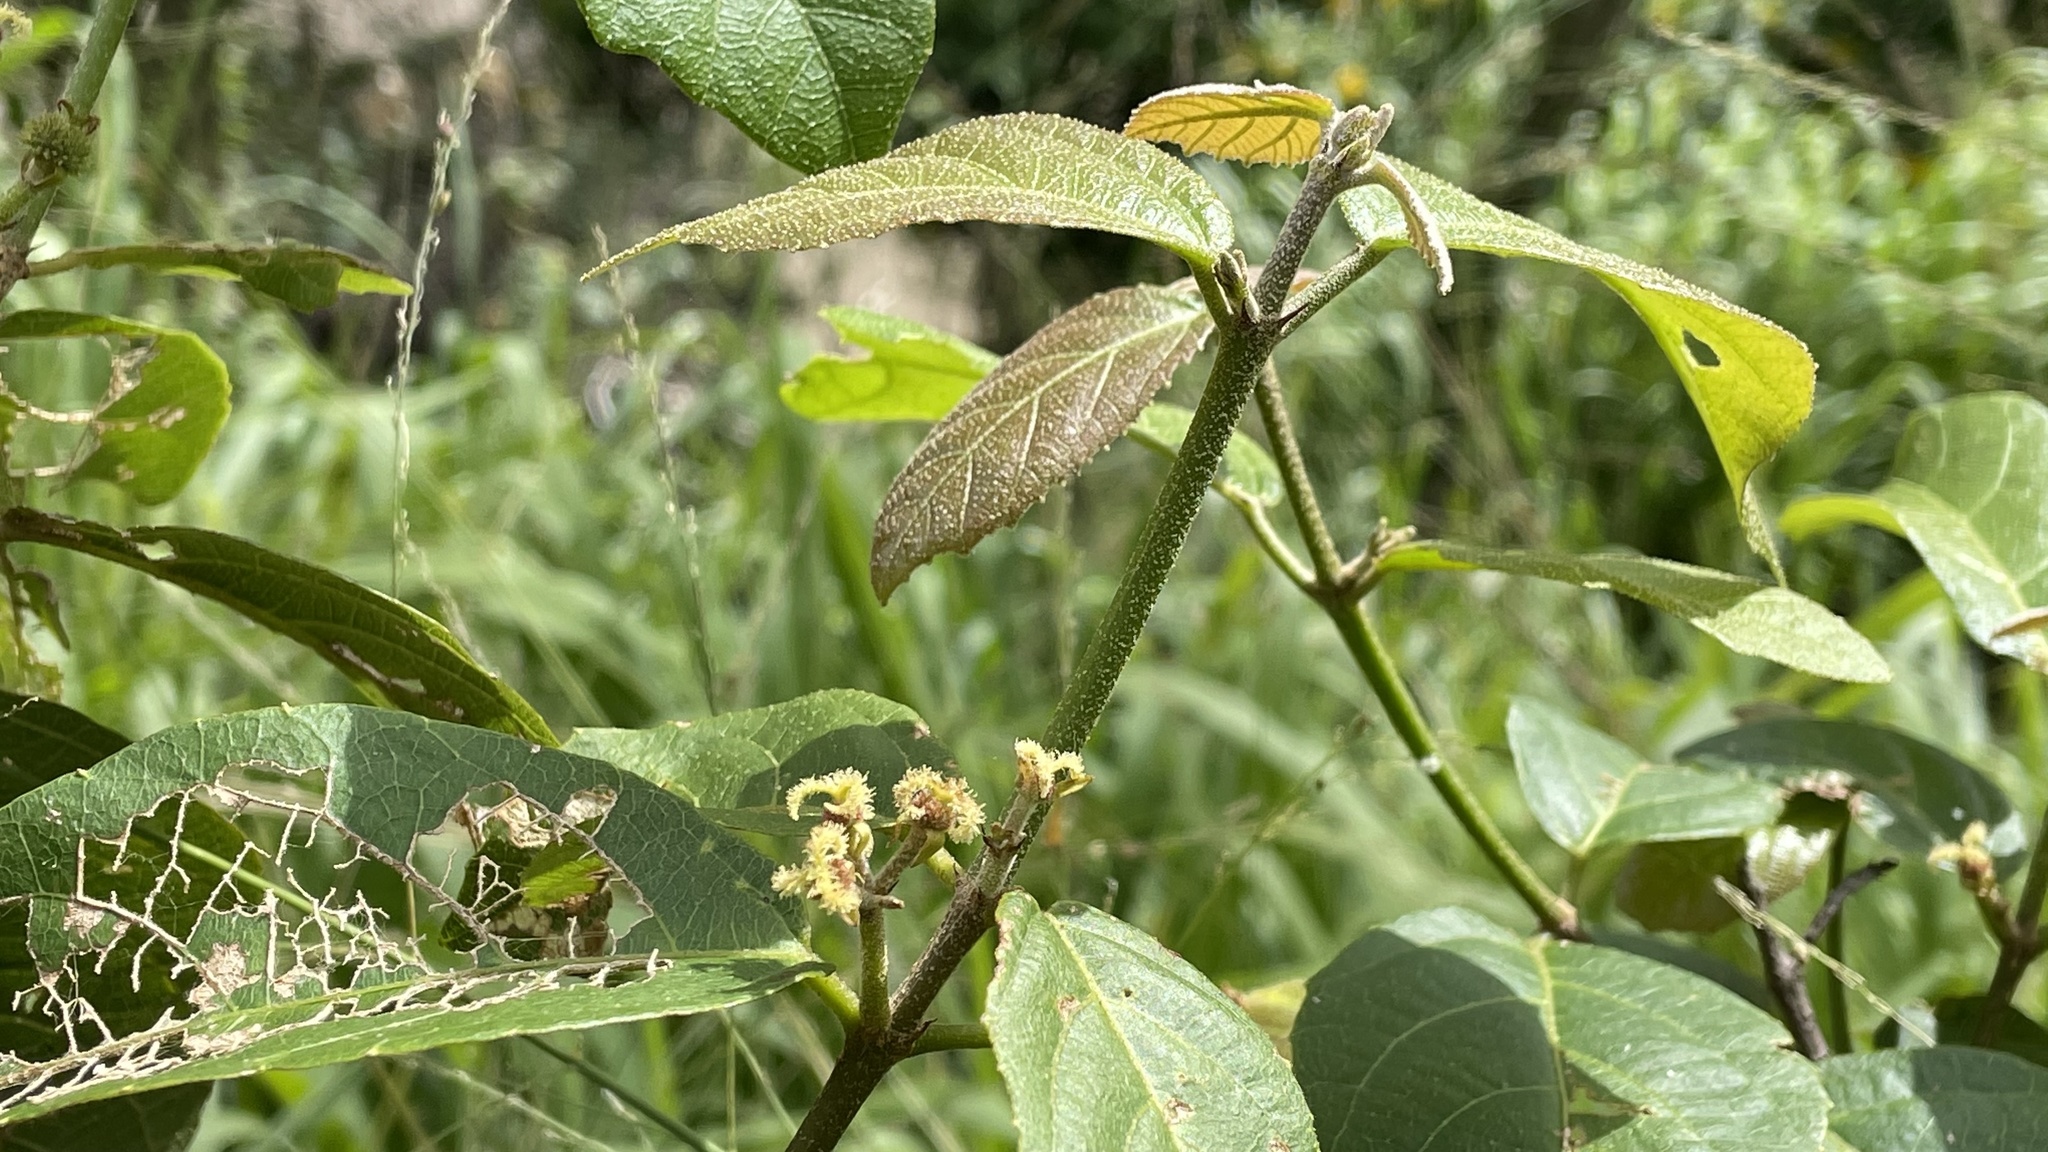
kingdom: Plantae
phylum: Tracheophyta
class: Magnoliopsida
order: Malpighiales
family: Euphorbiaceae
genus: Mallotus
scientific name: Mallotus claoxyloides
